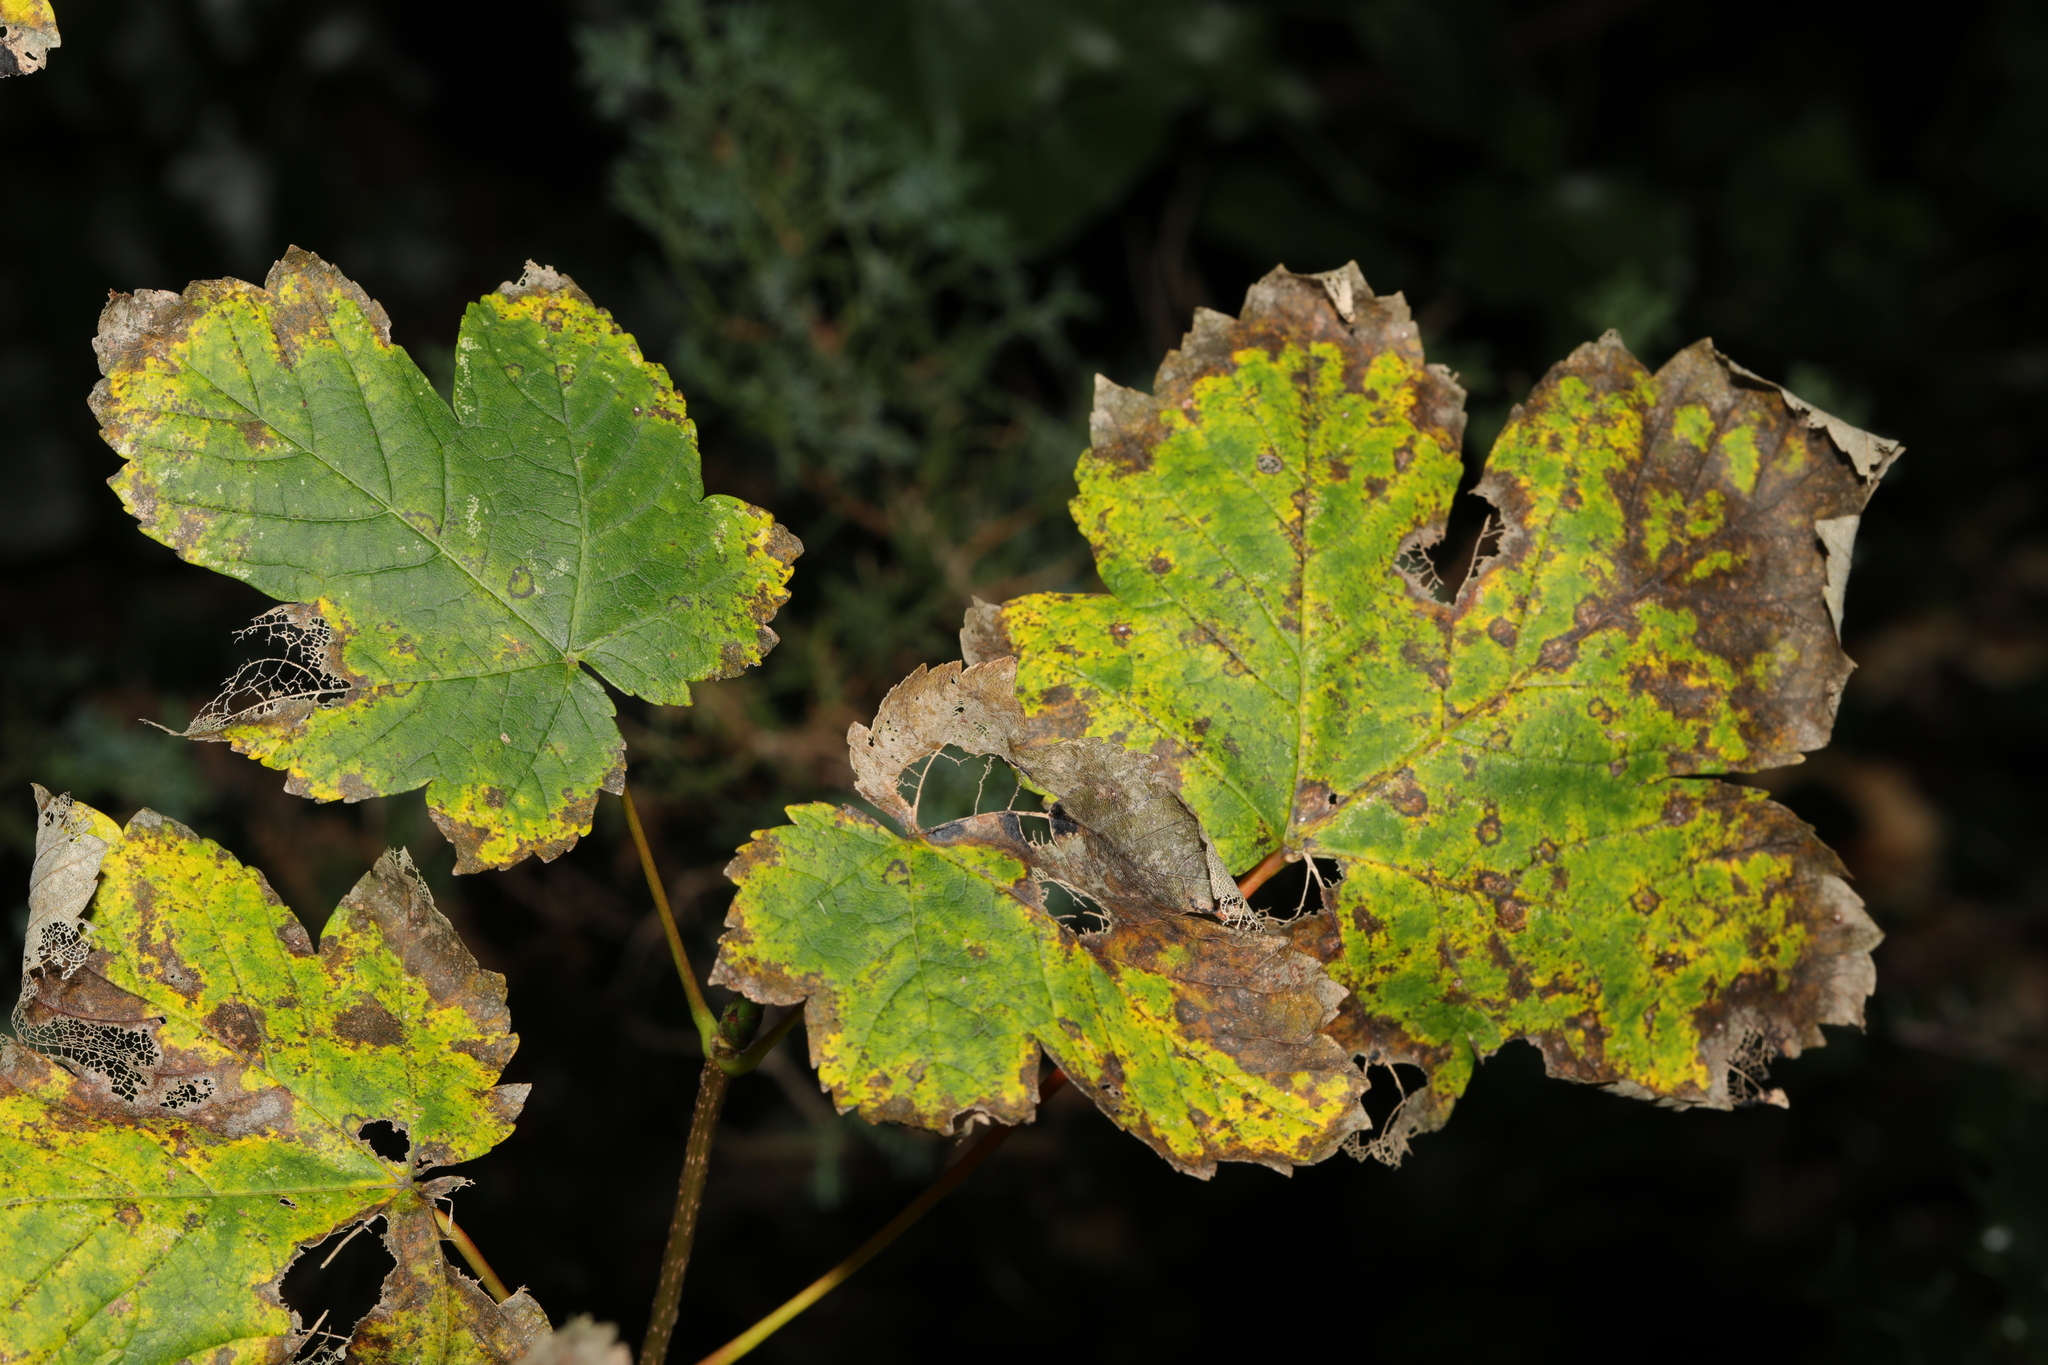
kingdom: Plantae
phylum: Tracheophyta
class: Magnoliopsida
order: Sapindales
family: Sapindaceae
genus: Acer
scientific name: Acer pseudoplatanus
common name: Sycamore
